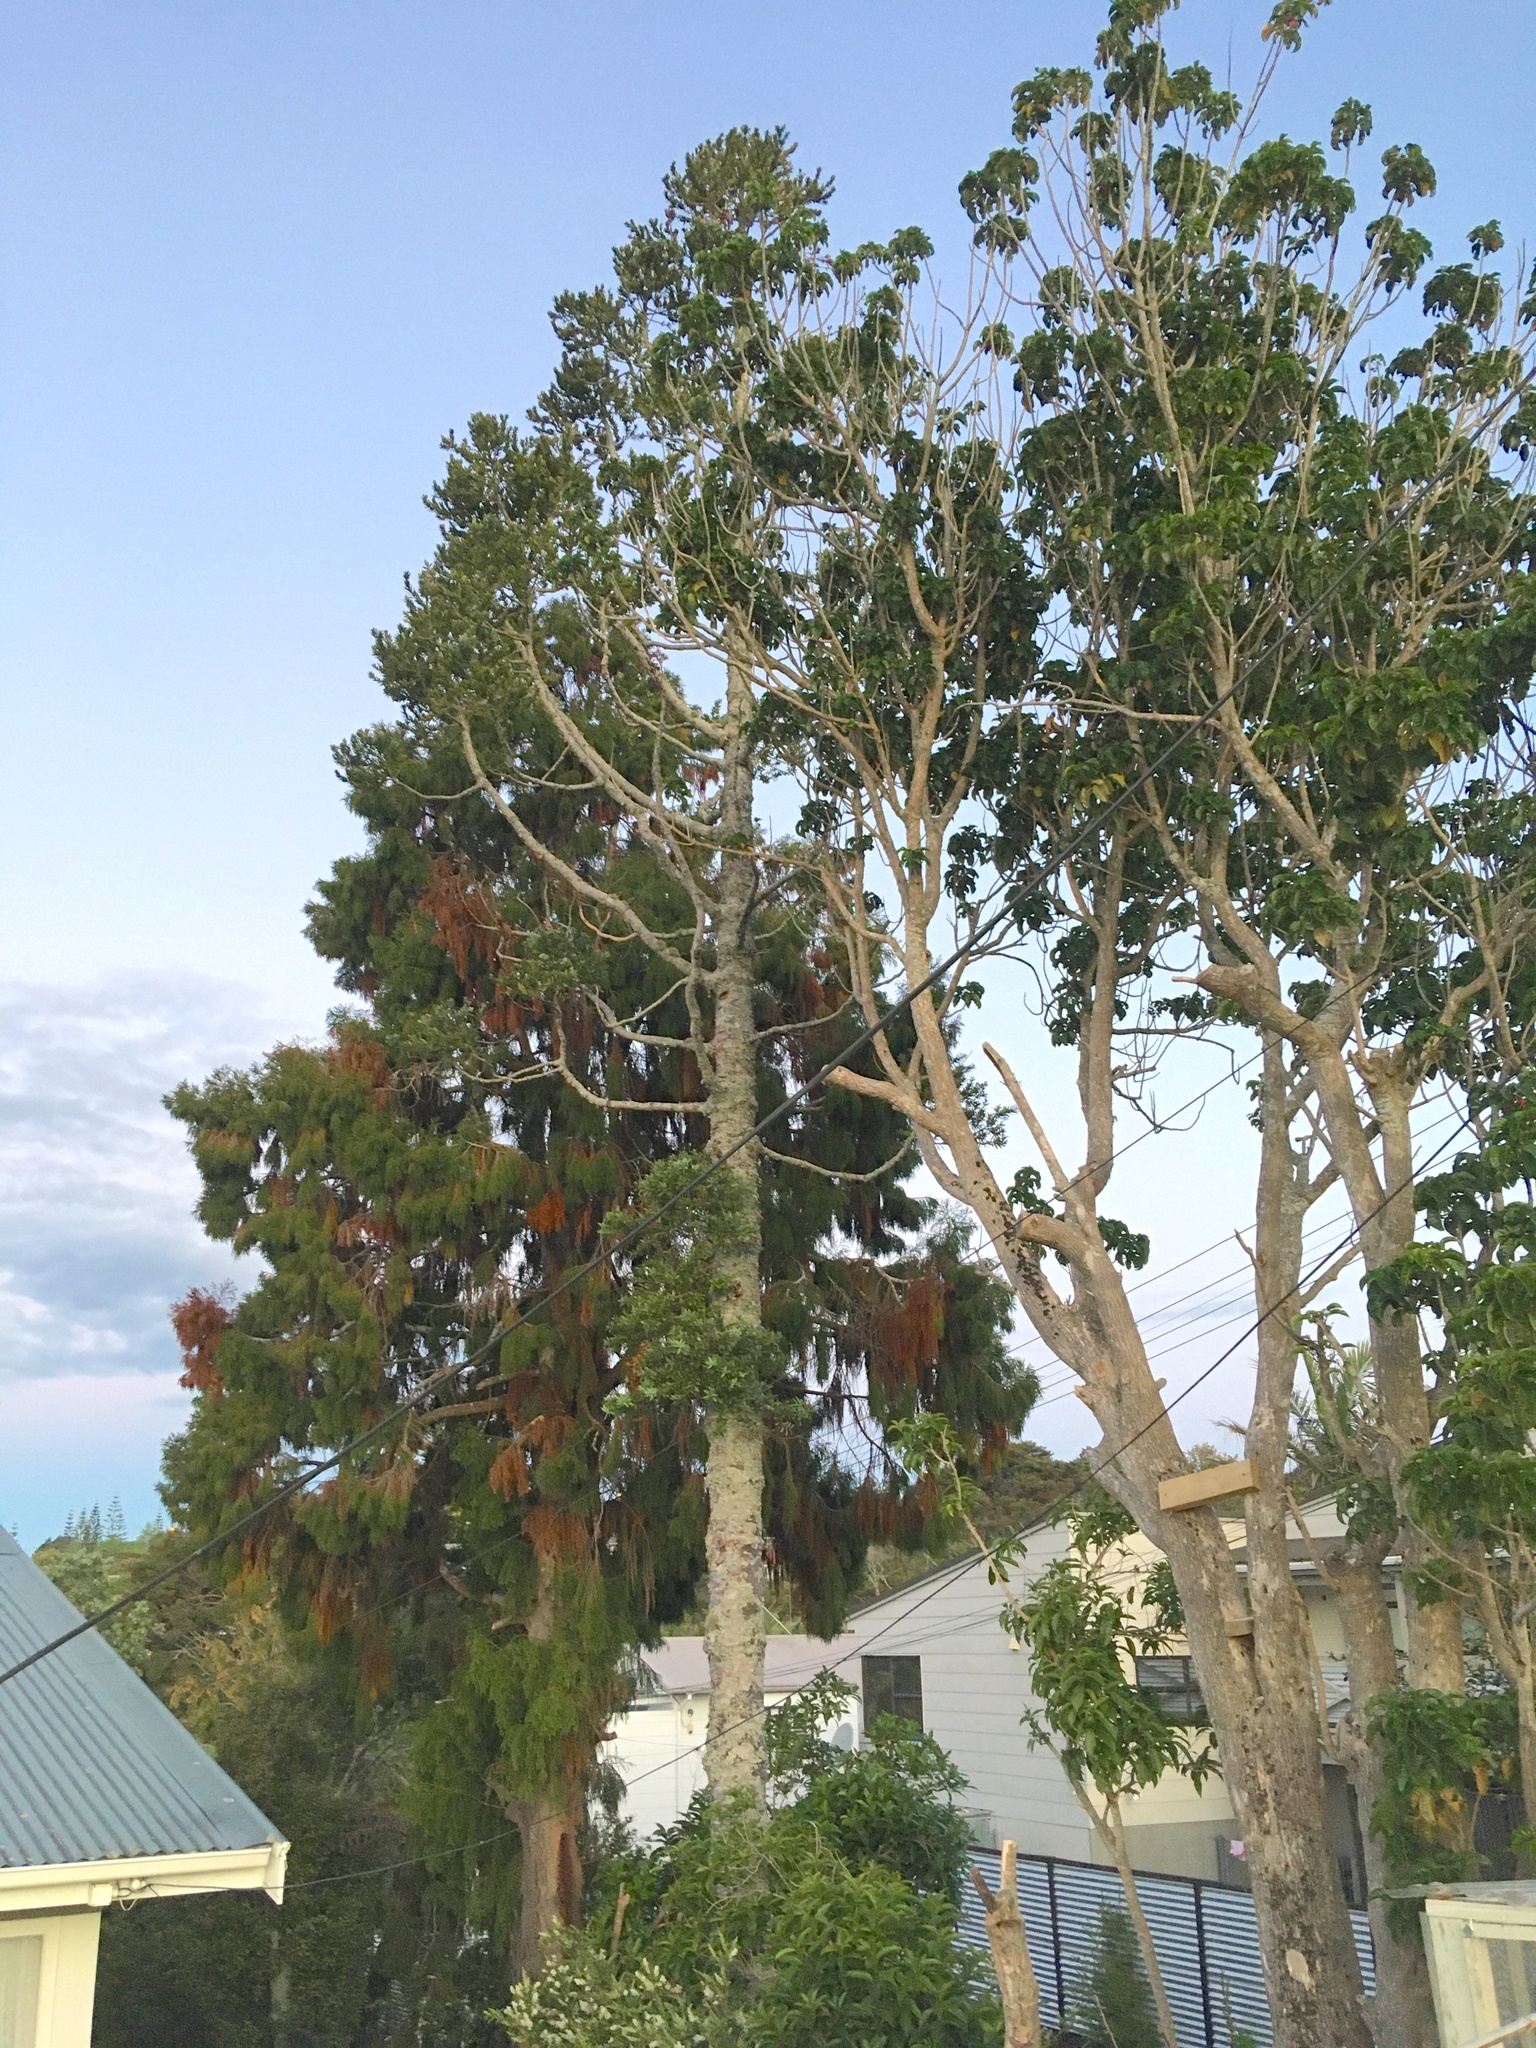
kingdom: Plantae
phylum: Tracheophyta
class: Pinopsida
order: Pinales
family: Araucariaceae
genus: Agathis
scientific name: Agathis australis
